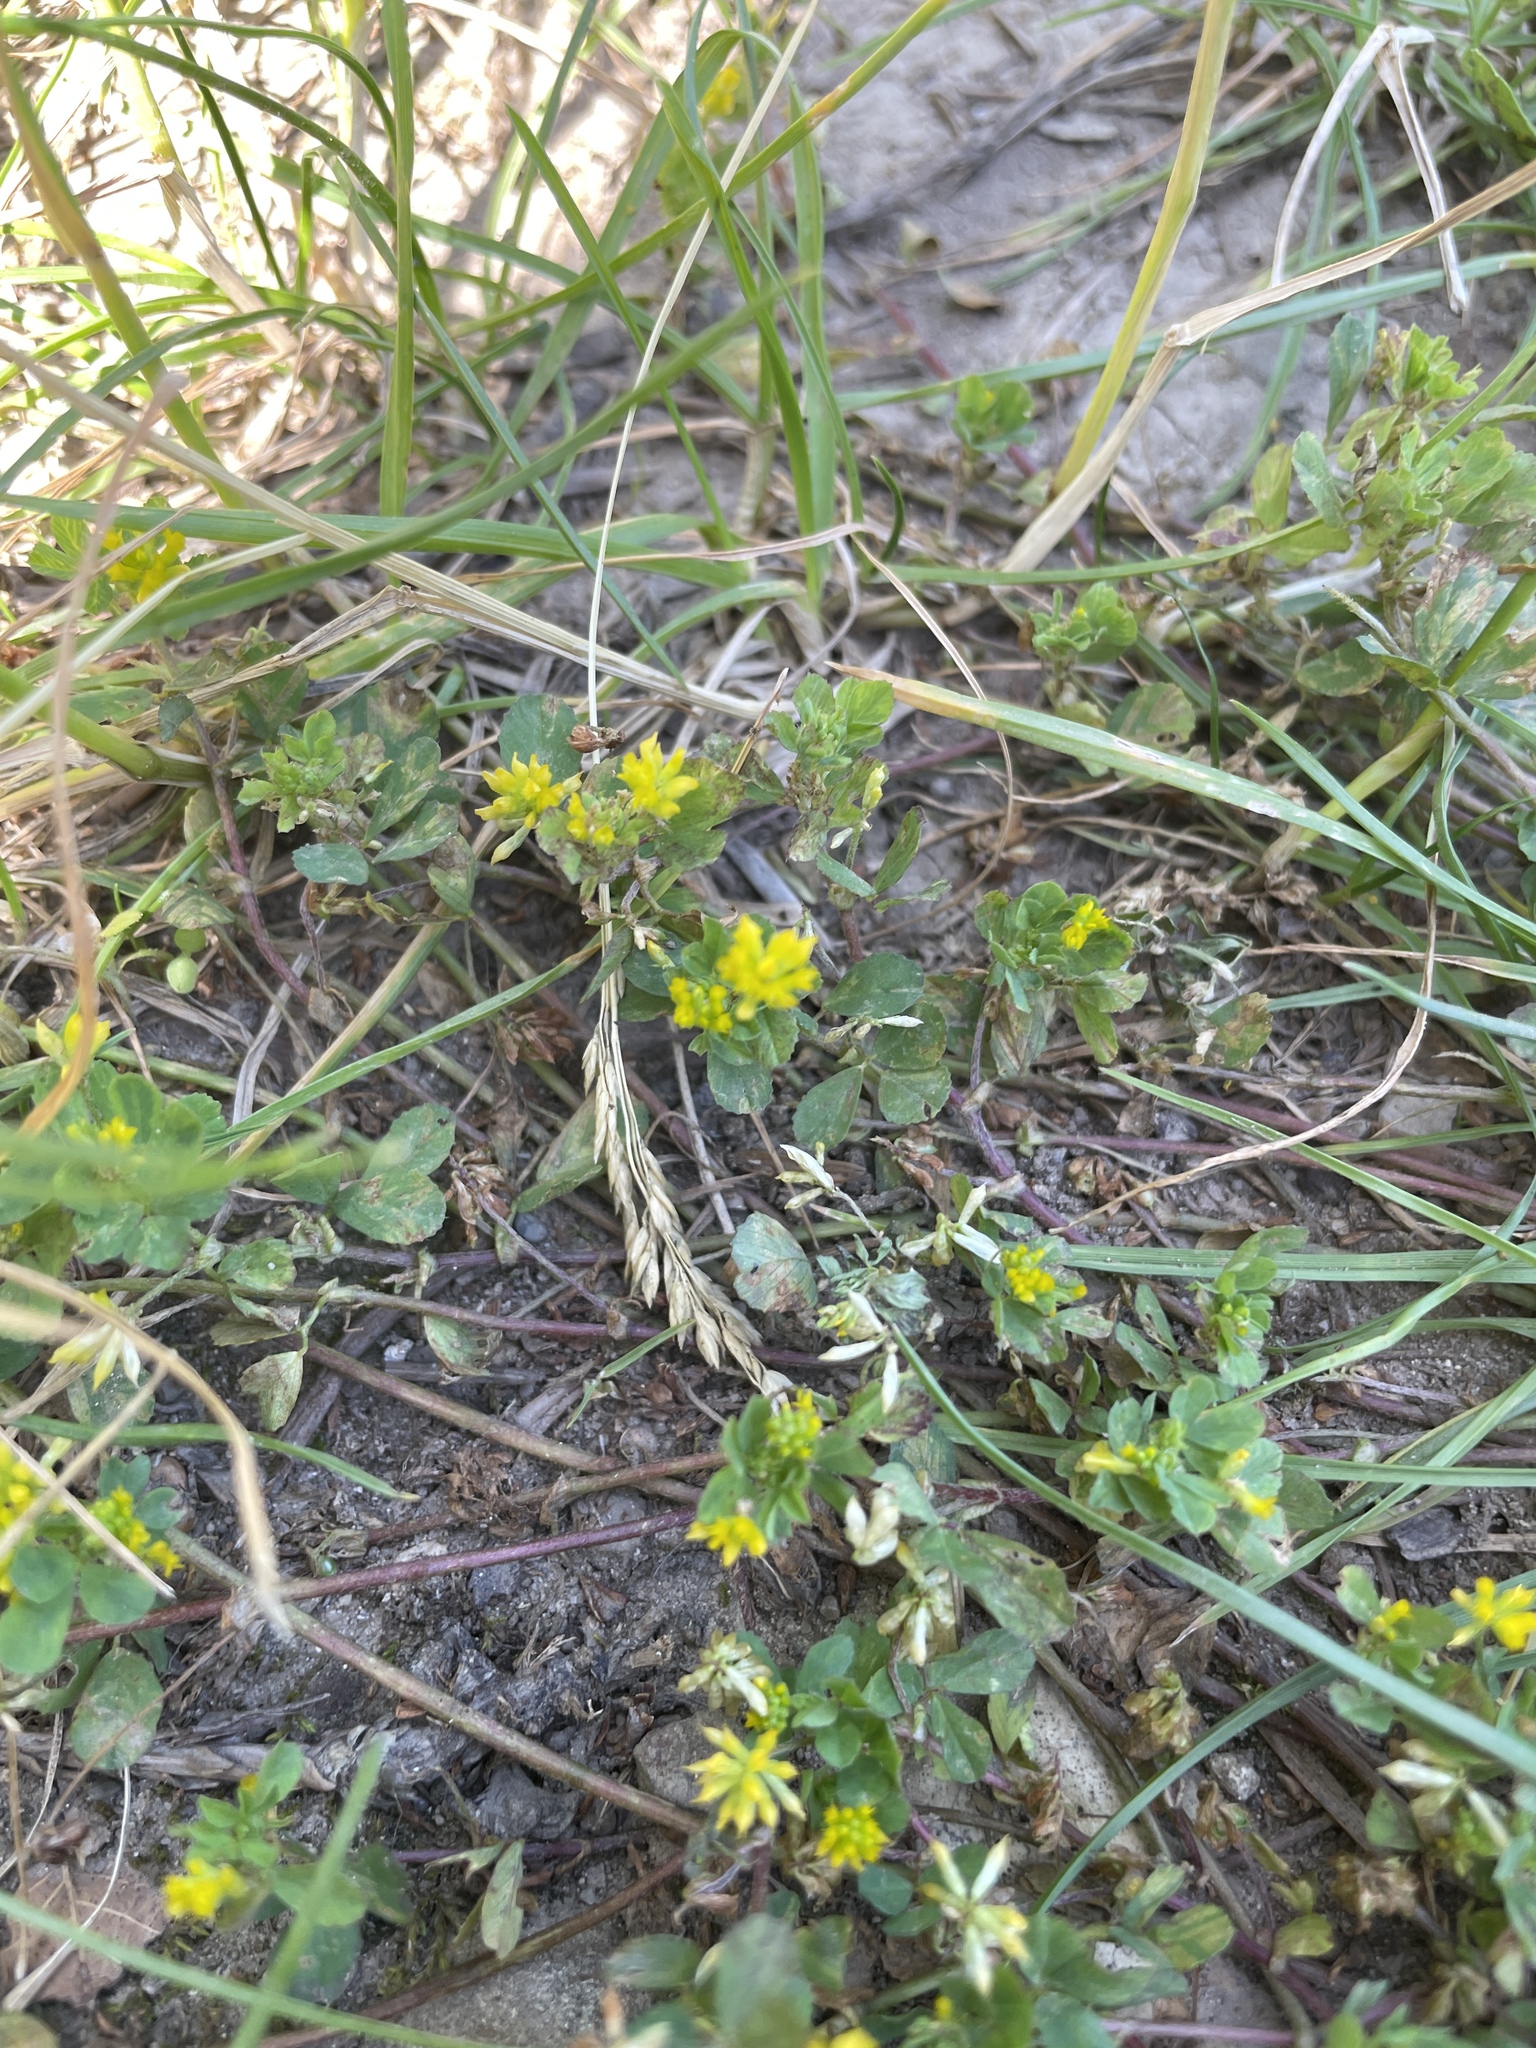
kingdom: Plantae
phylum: Tracheophyta
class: Magnoliopsida
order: Fabales
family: Fabaceae
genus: Trifolium
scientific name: Trifolium dubium
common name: Suckling clover
